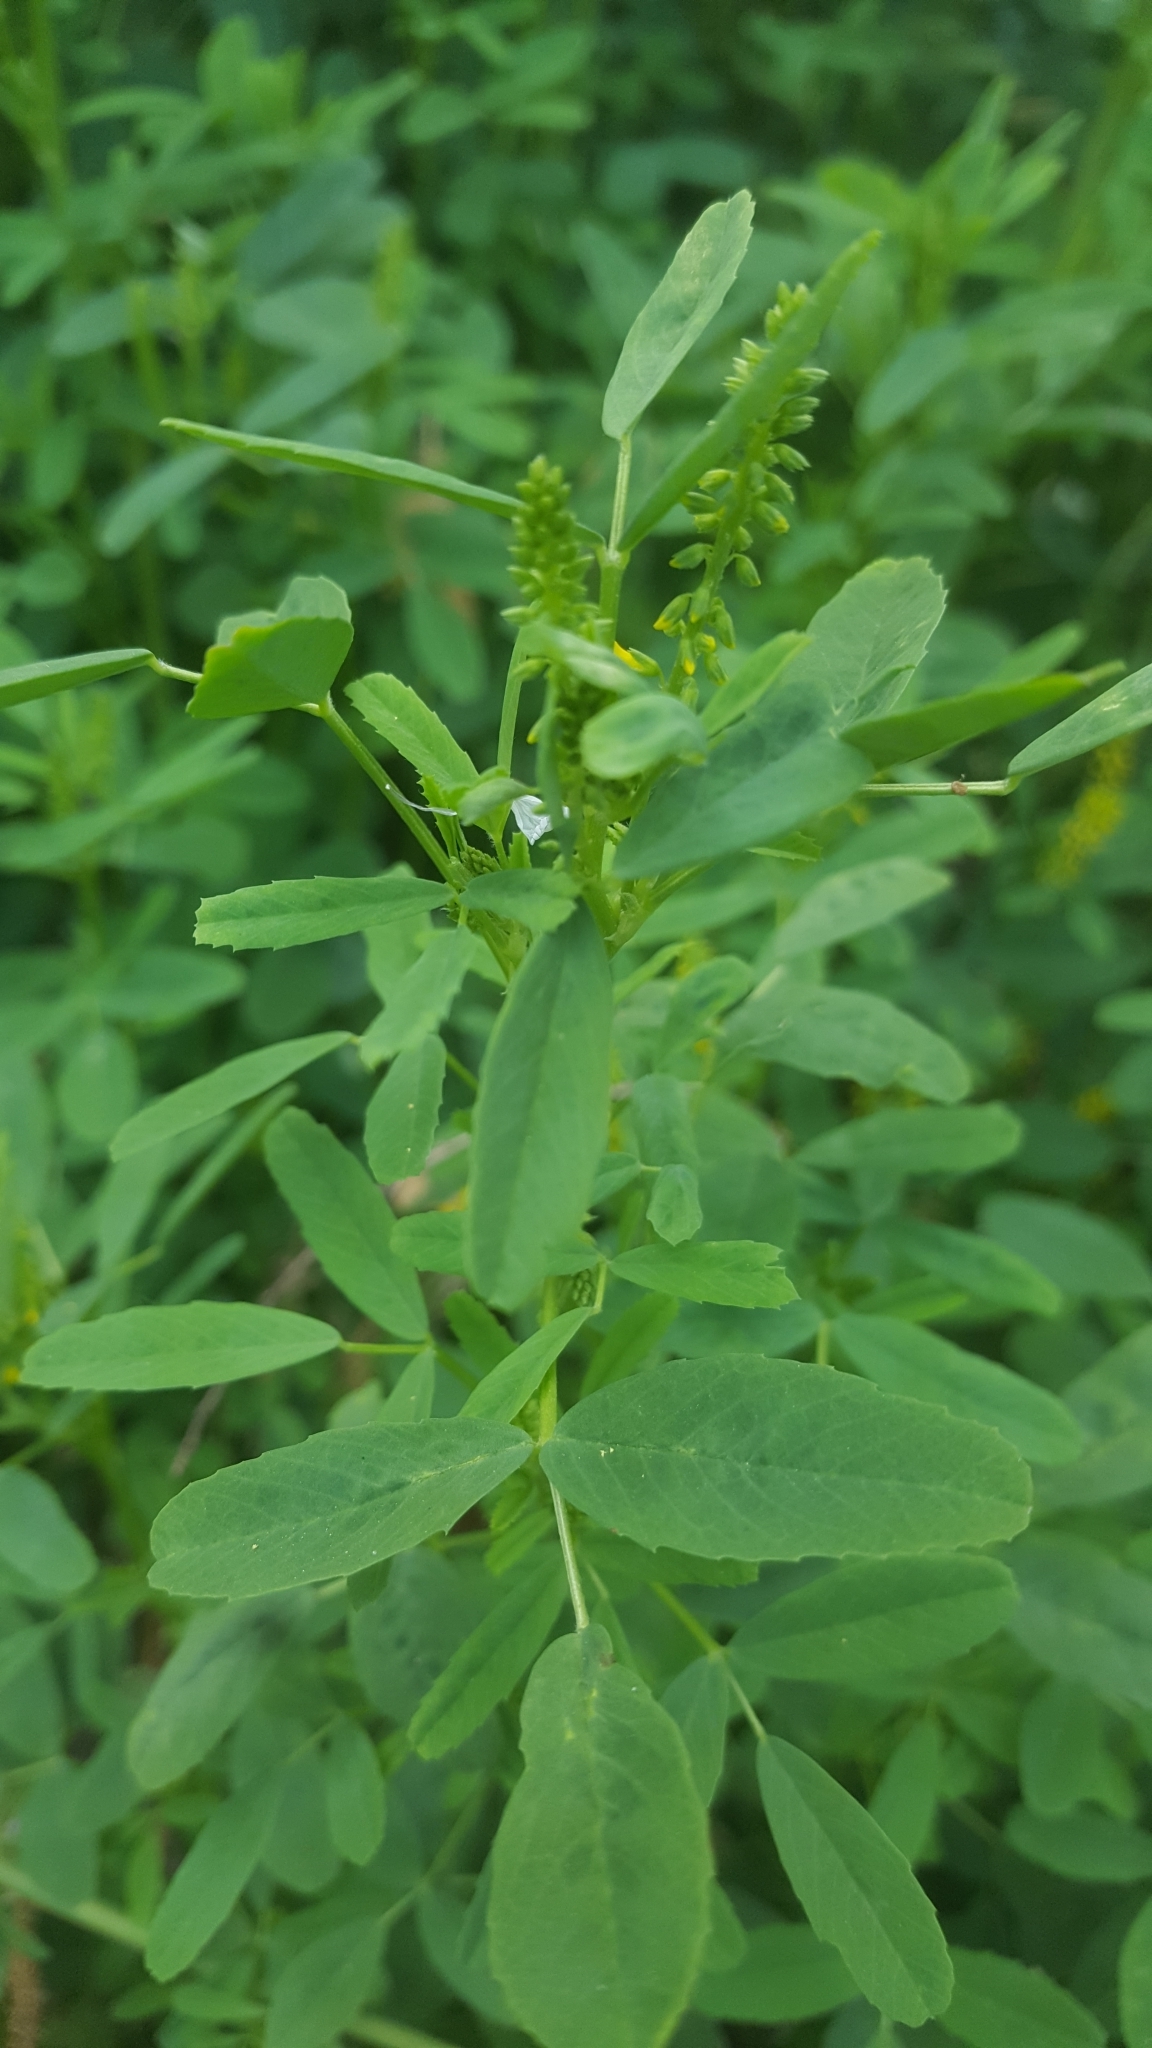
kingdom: Plantae
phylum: Tracheophyta
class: Magnoliopsida
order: Fabales
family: Fabaceae
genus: Melilotus
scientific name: Melilotus indicus
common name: Small melilot
